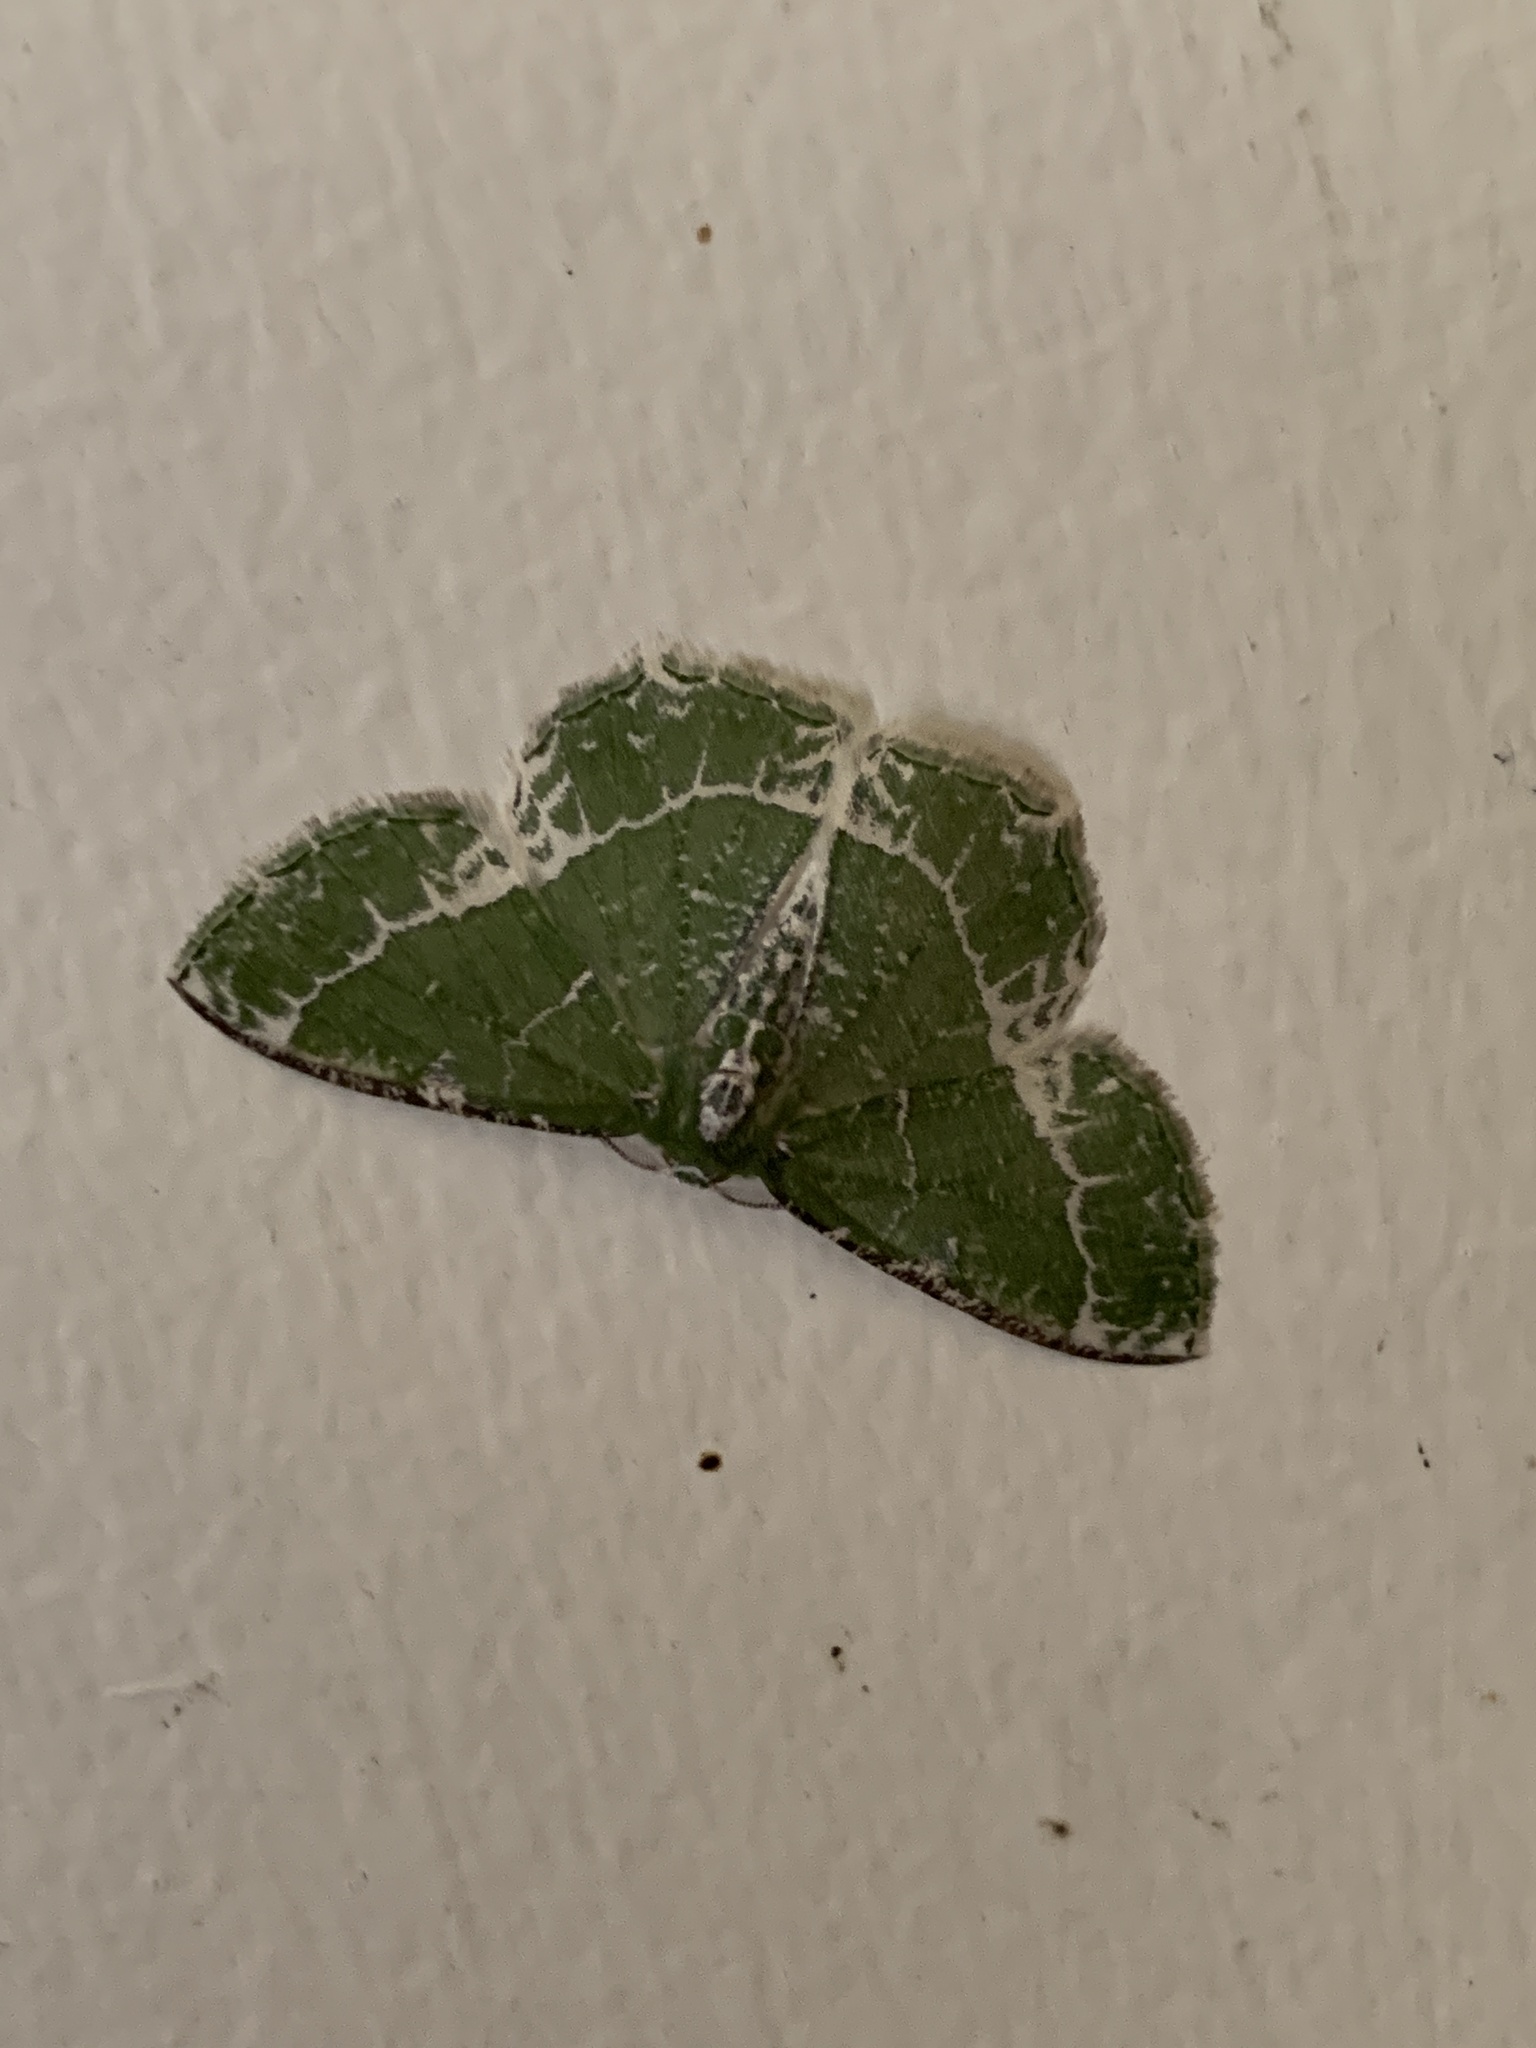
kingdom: Animalia
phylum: Arthropoda
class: Insecta
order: Lepidoptera
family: Geometridae
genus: Eucyclodes
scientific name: Eucyclodes insperata
